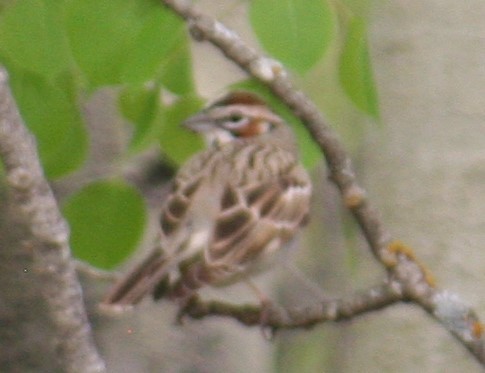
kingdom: Animalia
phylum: Chordata
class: Aves
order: Passeriformes
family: Passerellidae
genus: Chondestes
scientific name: Chondestes grammacus
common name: Lark sparrow
